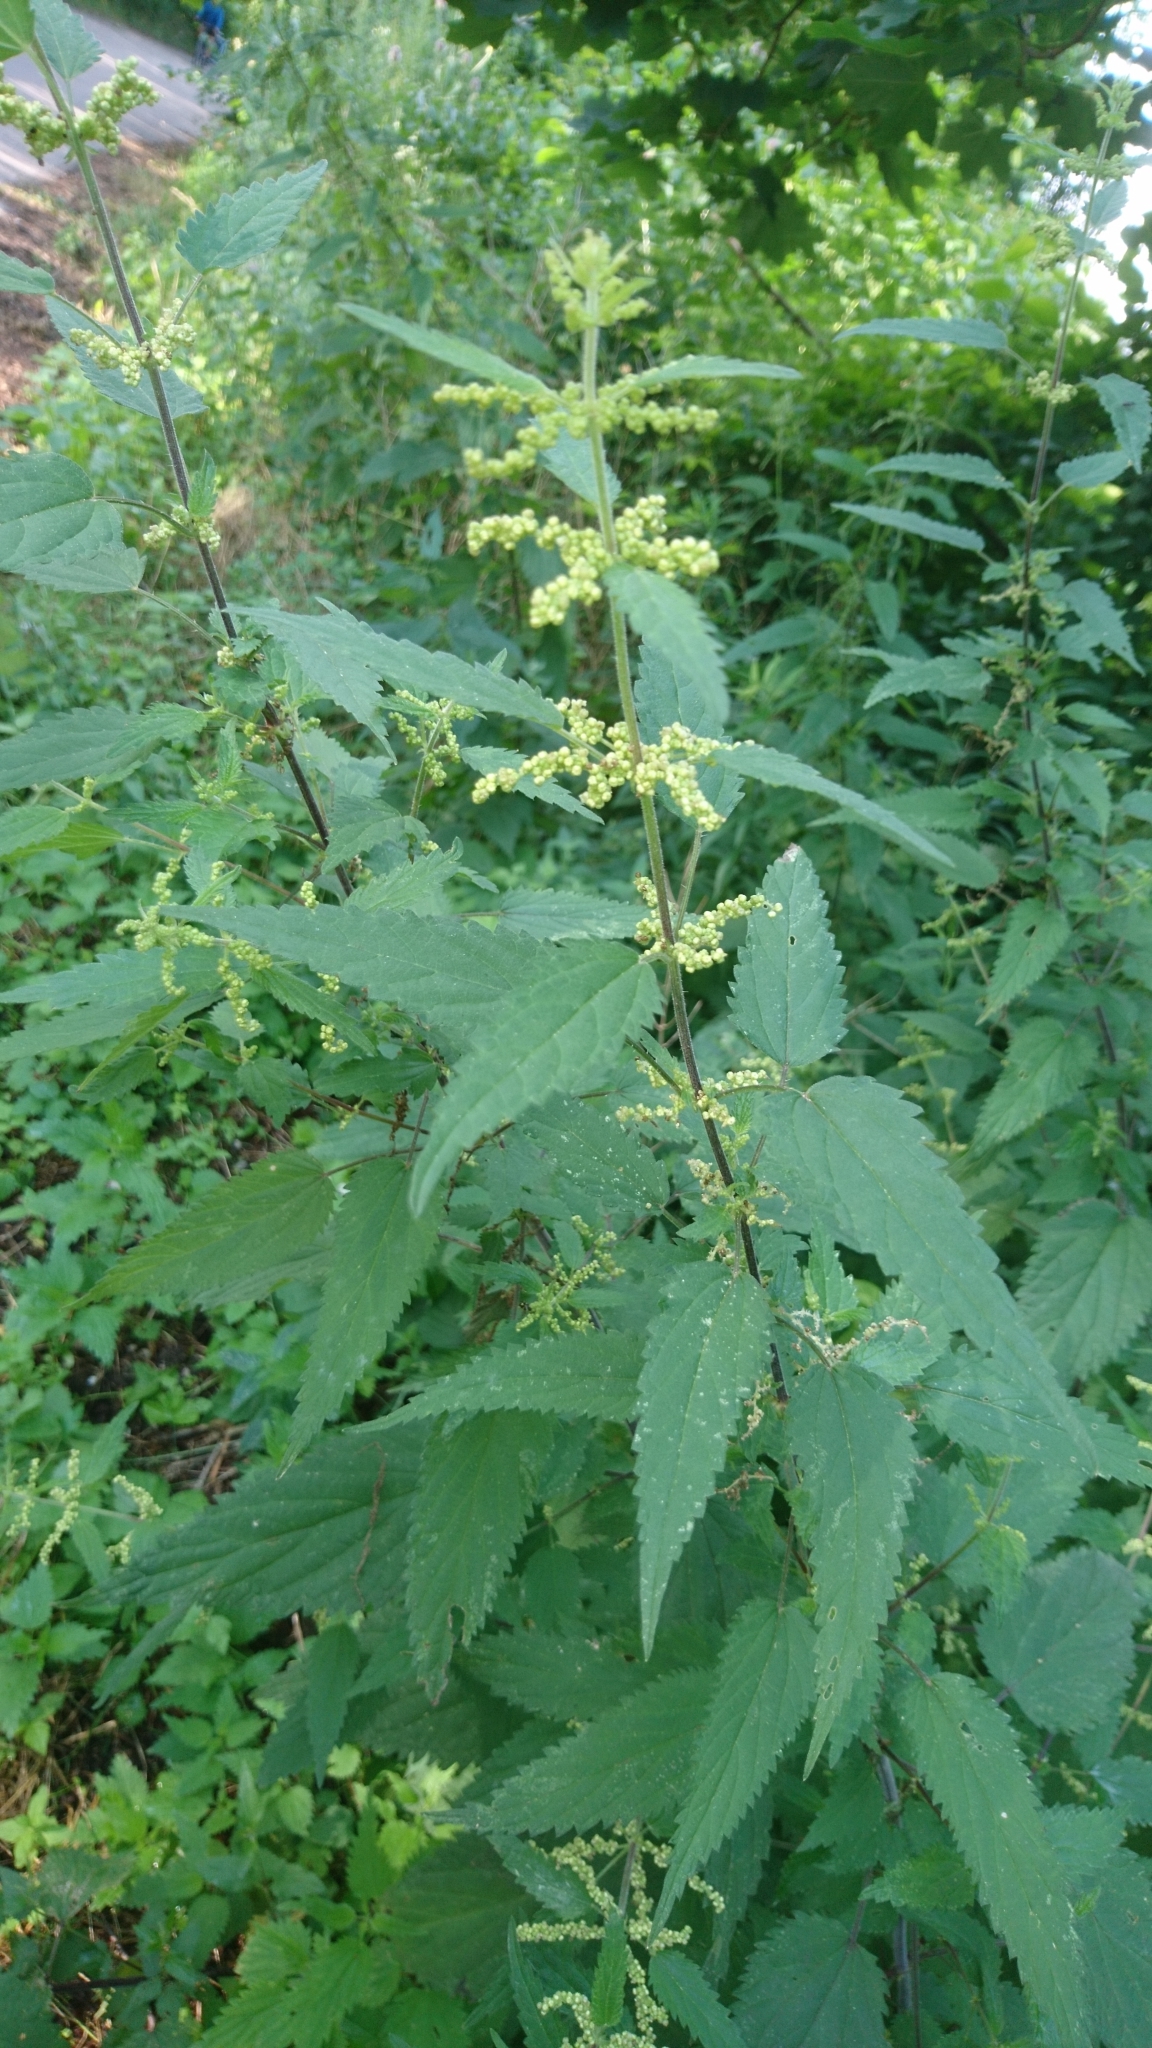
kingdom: Plantae
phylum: Tracheophyta
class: Magnoliopsida
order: Rosales
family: Urticaceae
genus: Urtica
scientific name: Urtica dioica
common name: Common nettle
